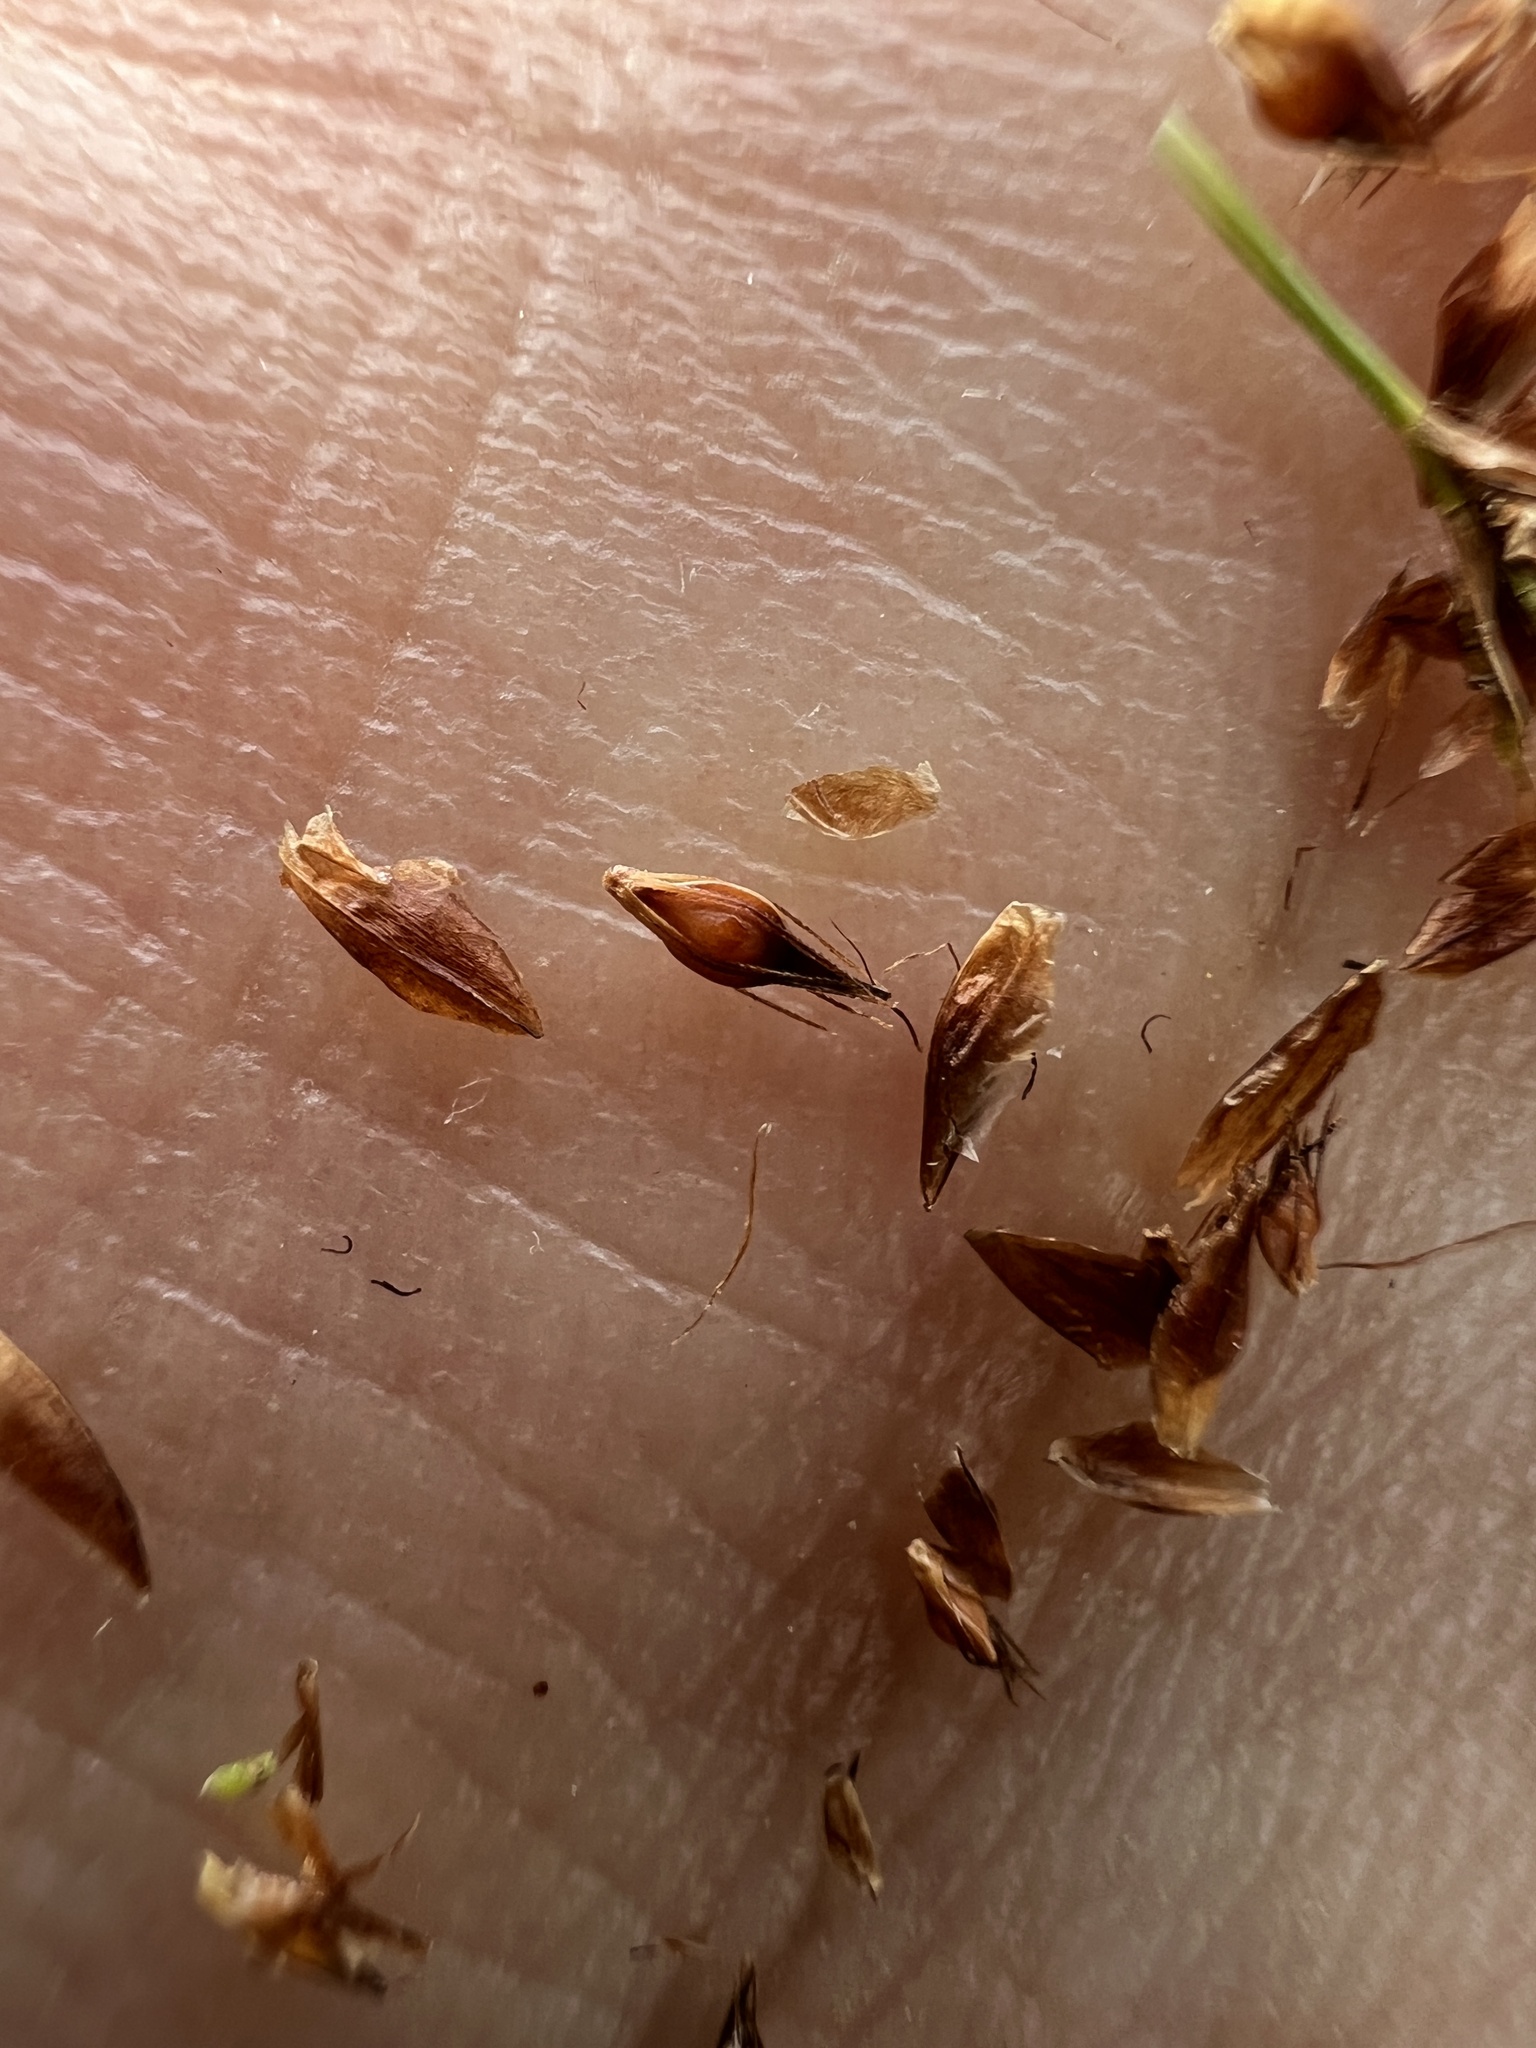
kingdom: Plantae
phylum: Tracheophyta
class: Liliopsida
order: Poales
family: Cyperaceae
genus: Rhynchospora
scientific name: Rhynchospora capitellata
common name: Brownish beaksedge
